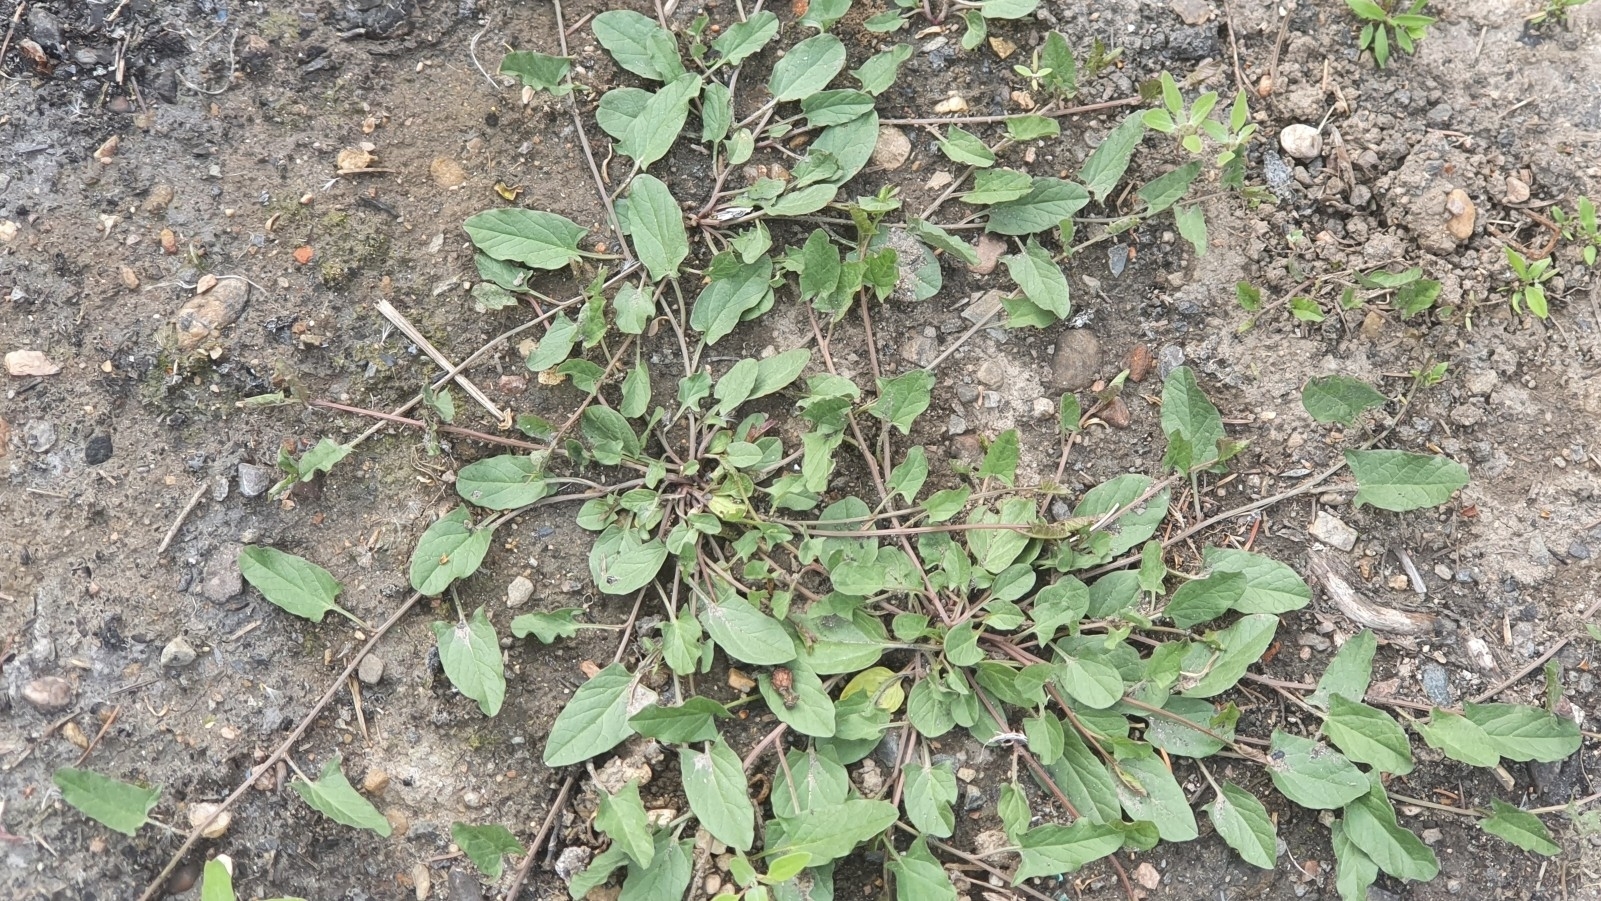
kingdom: Plantae
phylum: Tracheophyta
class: Magnoliopsida
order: Solanales
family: Convolvulaceae
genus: Convolvulus
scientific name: Convolvulus arvensis
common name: Field bindweed
